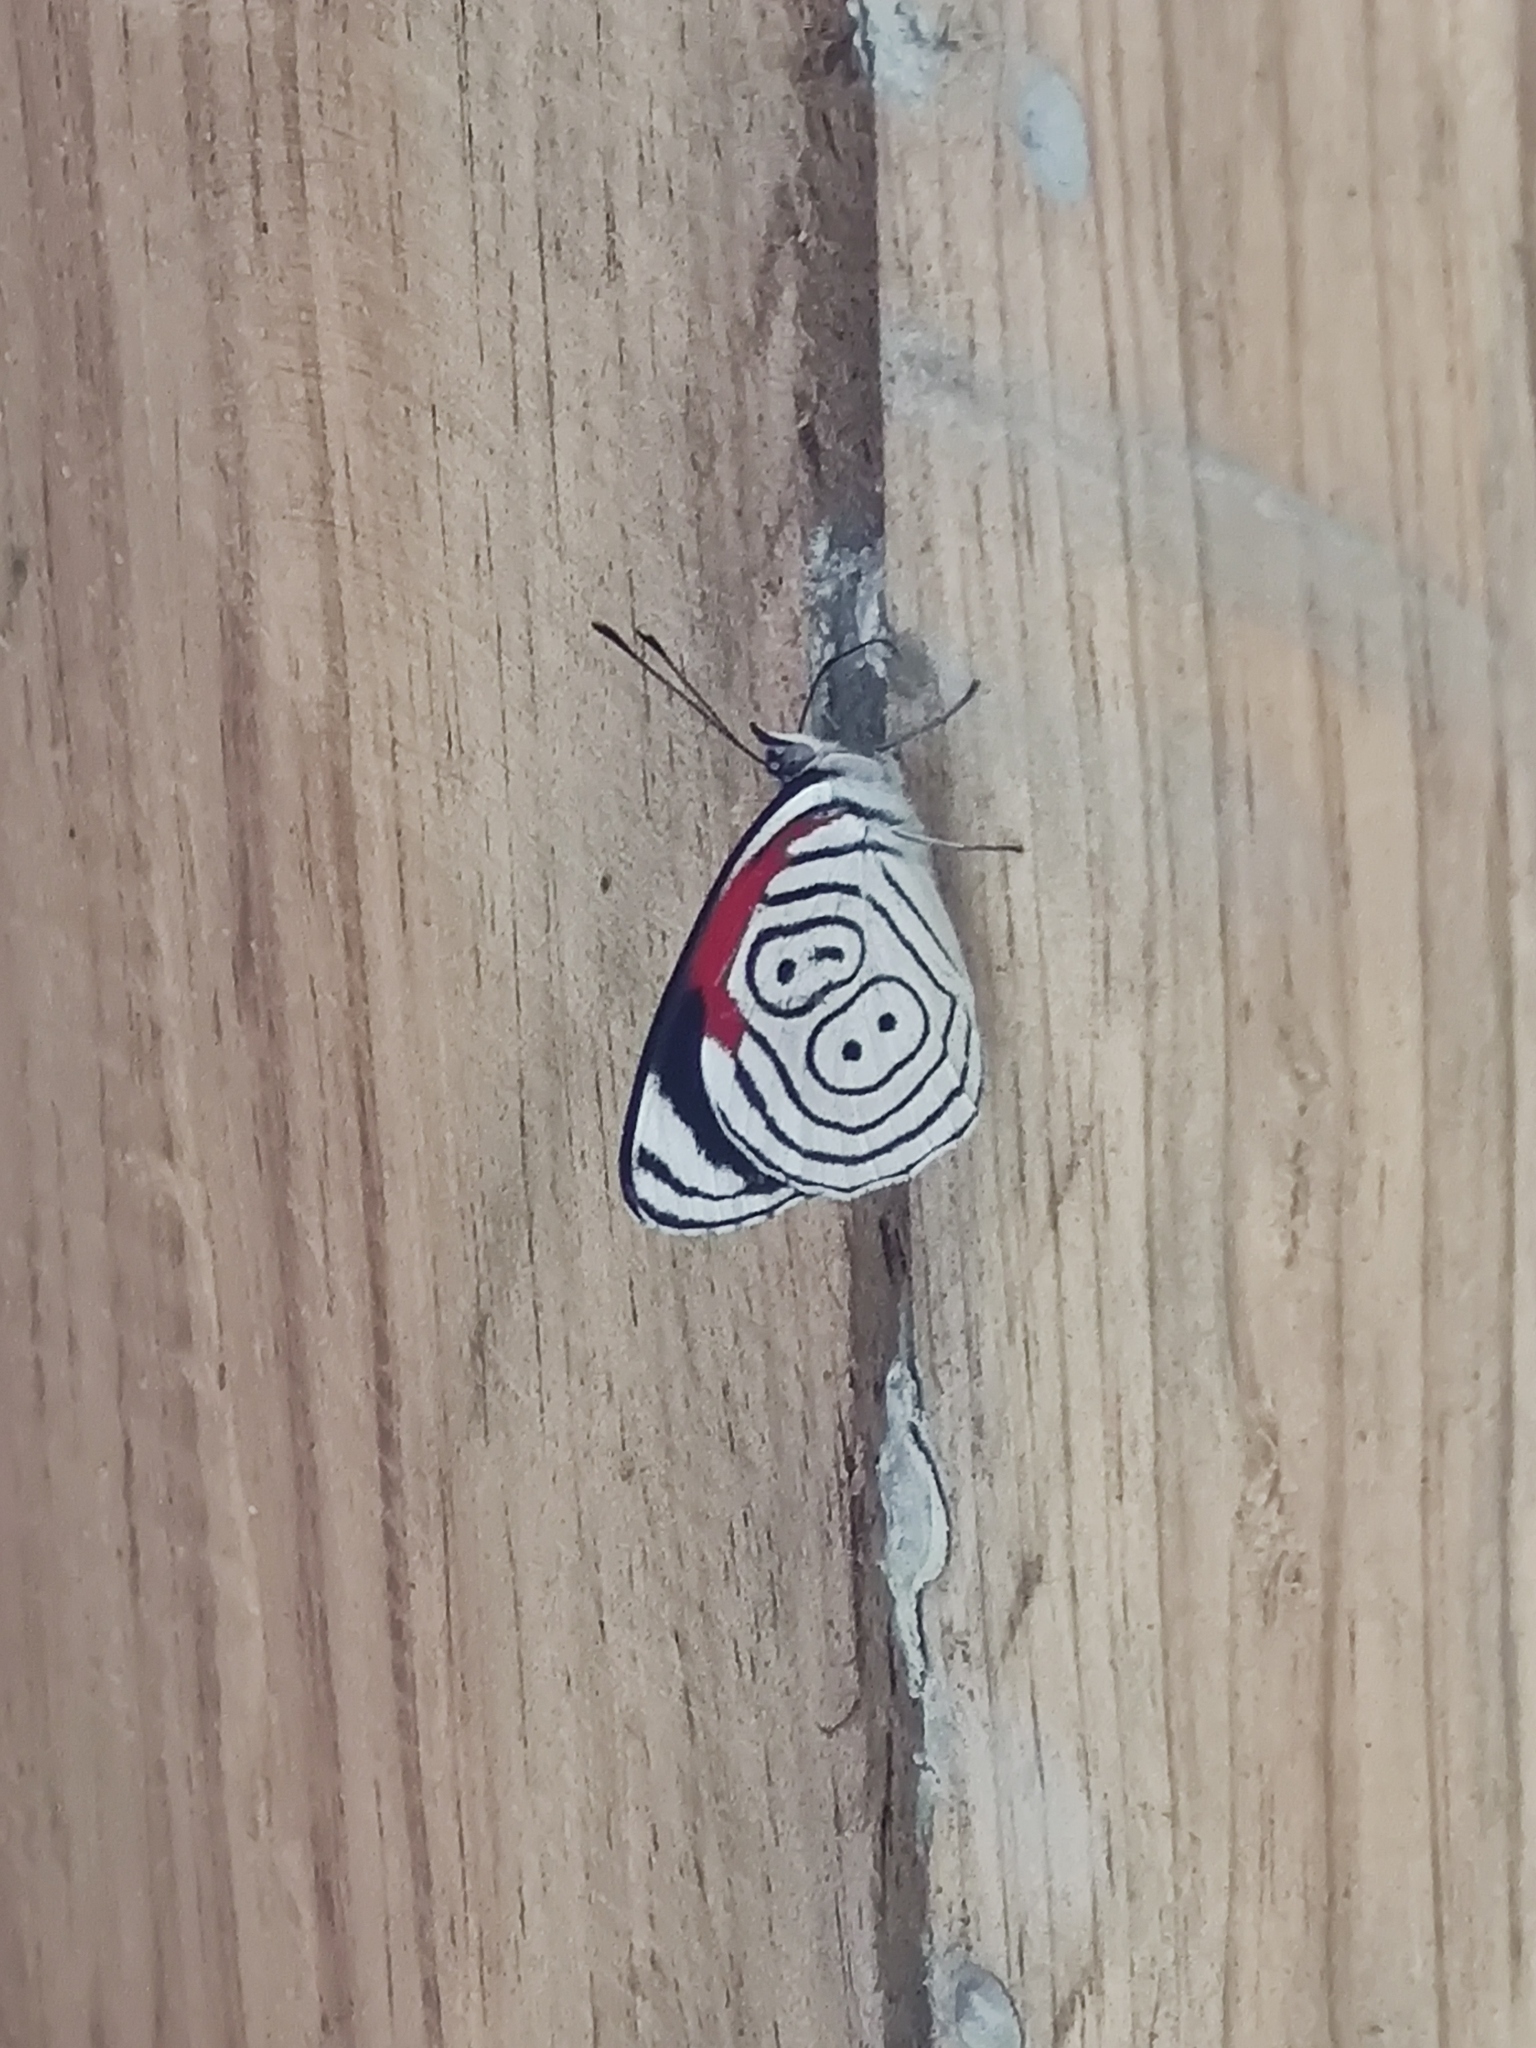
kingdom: Animalia
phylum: Arthropoda
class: Insecta
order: Lepidoptera
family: Nymphalidae
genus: Diaethria
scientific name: Diaethria anna
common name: Anna’s eighty-eight
